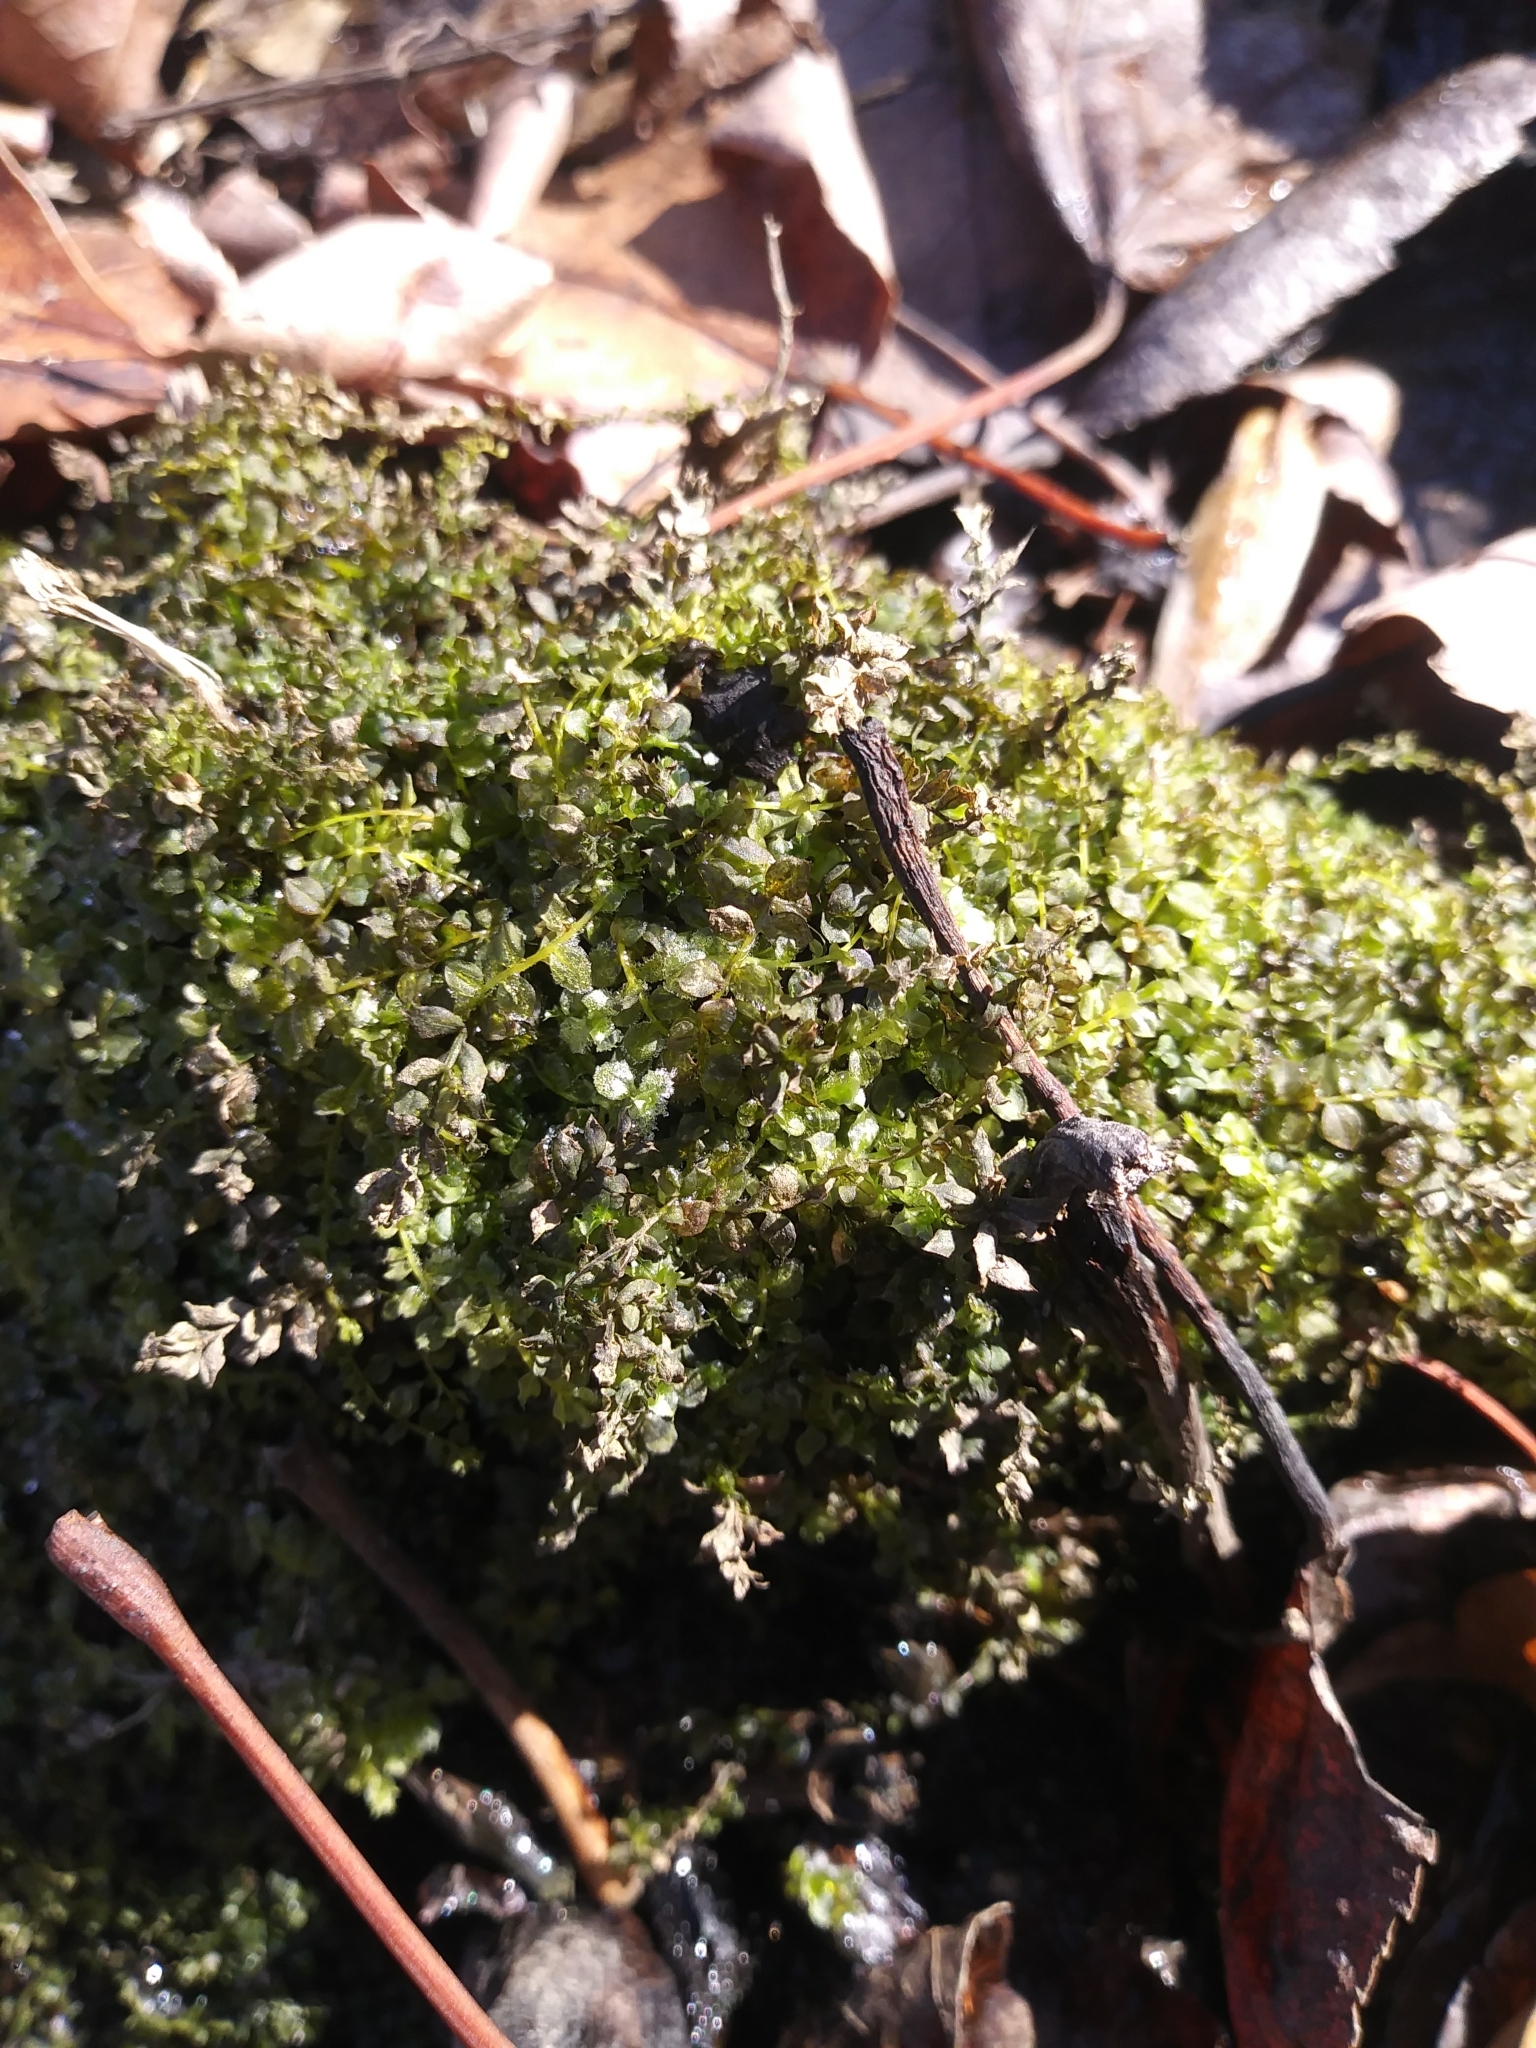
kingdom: Plantae
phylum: Bryophyta
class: Bryopsida
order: Bryales
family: Mniaceae
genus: Plagiomnium
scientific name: Plagiomnium cuspidatum
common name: Woodsy leafy moss
